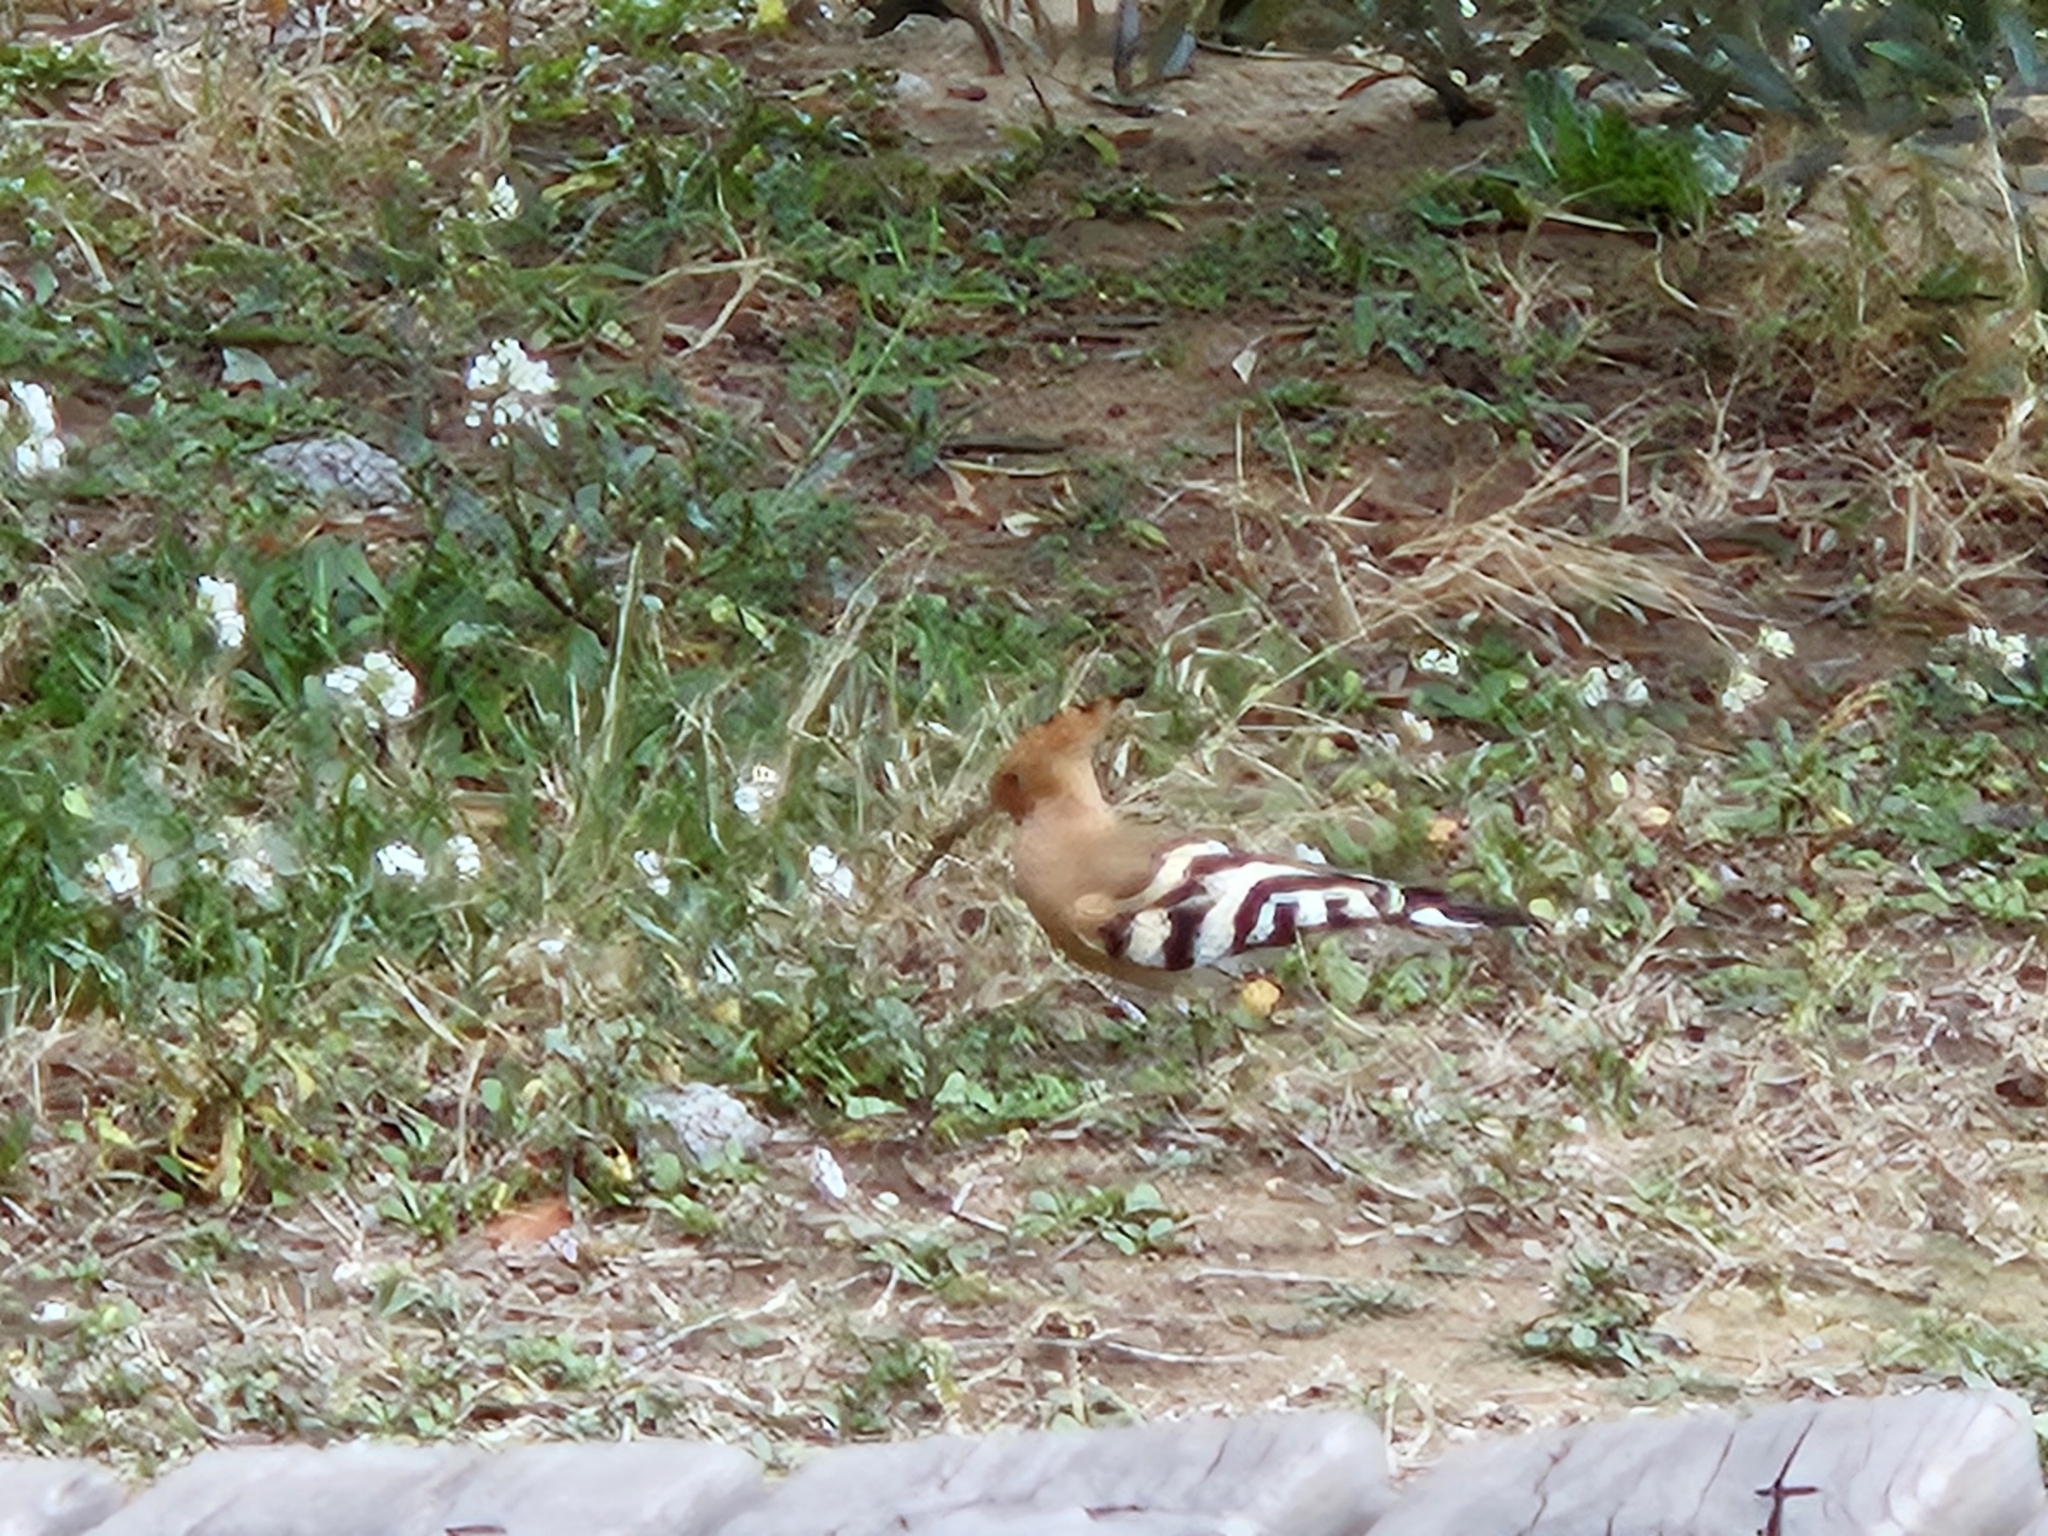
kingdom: Animalia
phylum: Chordata
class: Aves
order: Bucerotiformes
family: Upupidae
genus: Upupa
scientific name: Upupa epops
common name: Eurasian hoopoe
